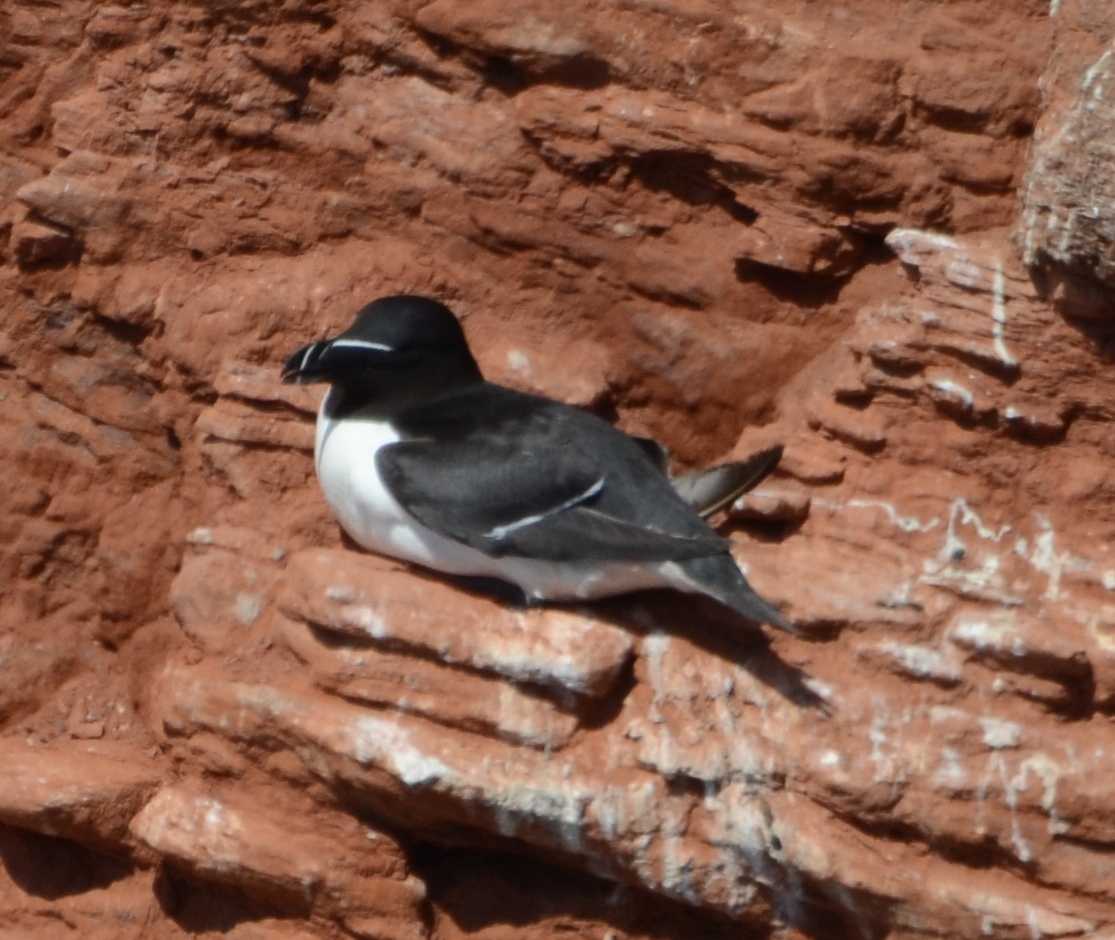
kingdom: Animalia
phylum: Chordata
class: Aves
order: Charadriiformes
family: Alcidae
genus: Alca
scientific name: Alca torda
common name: Razorbill
